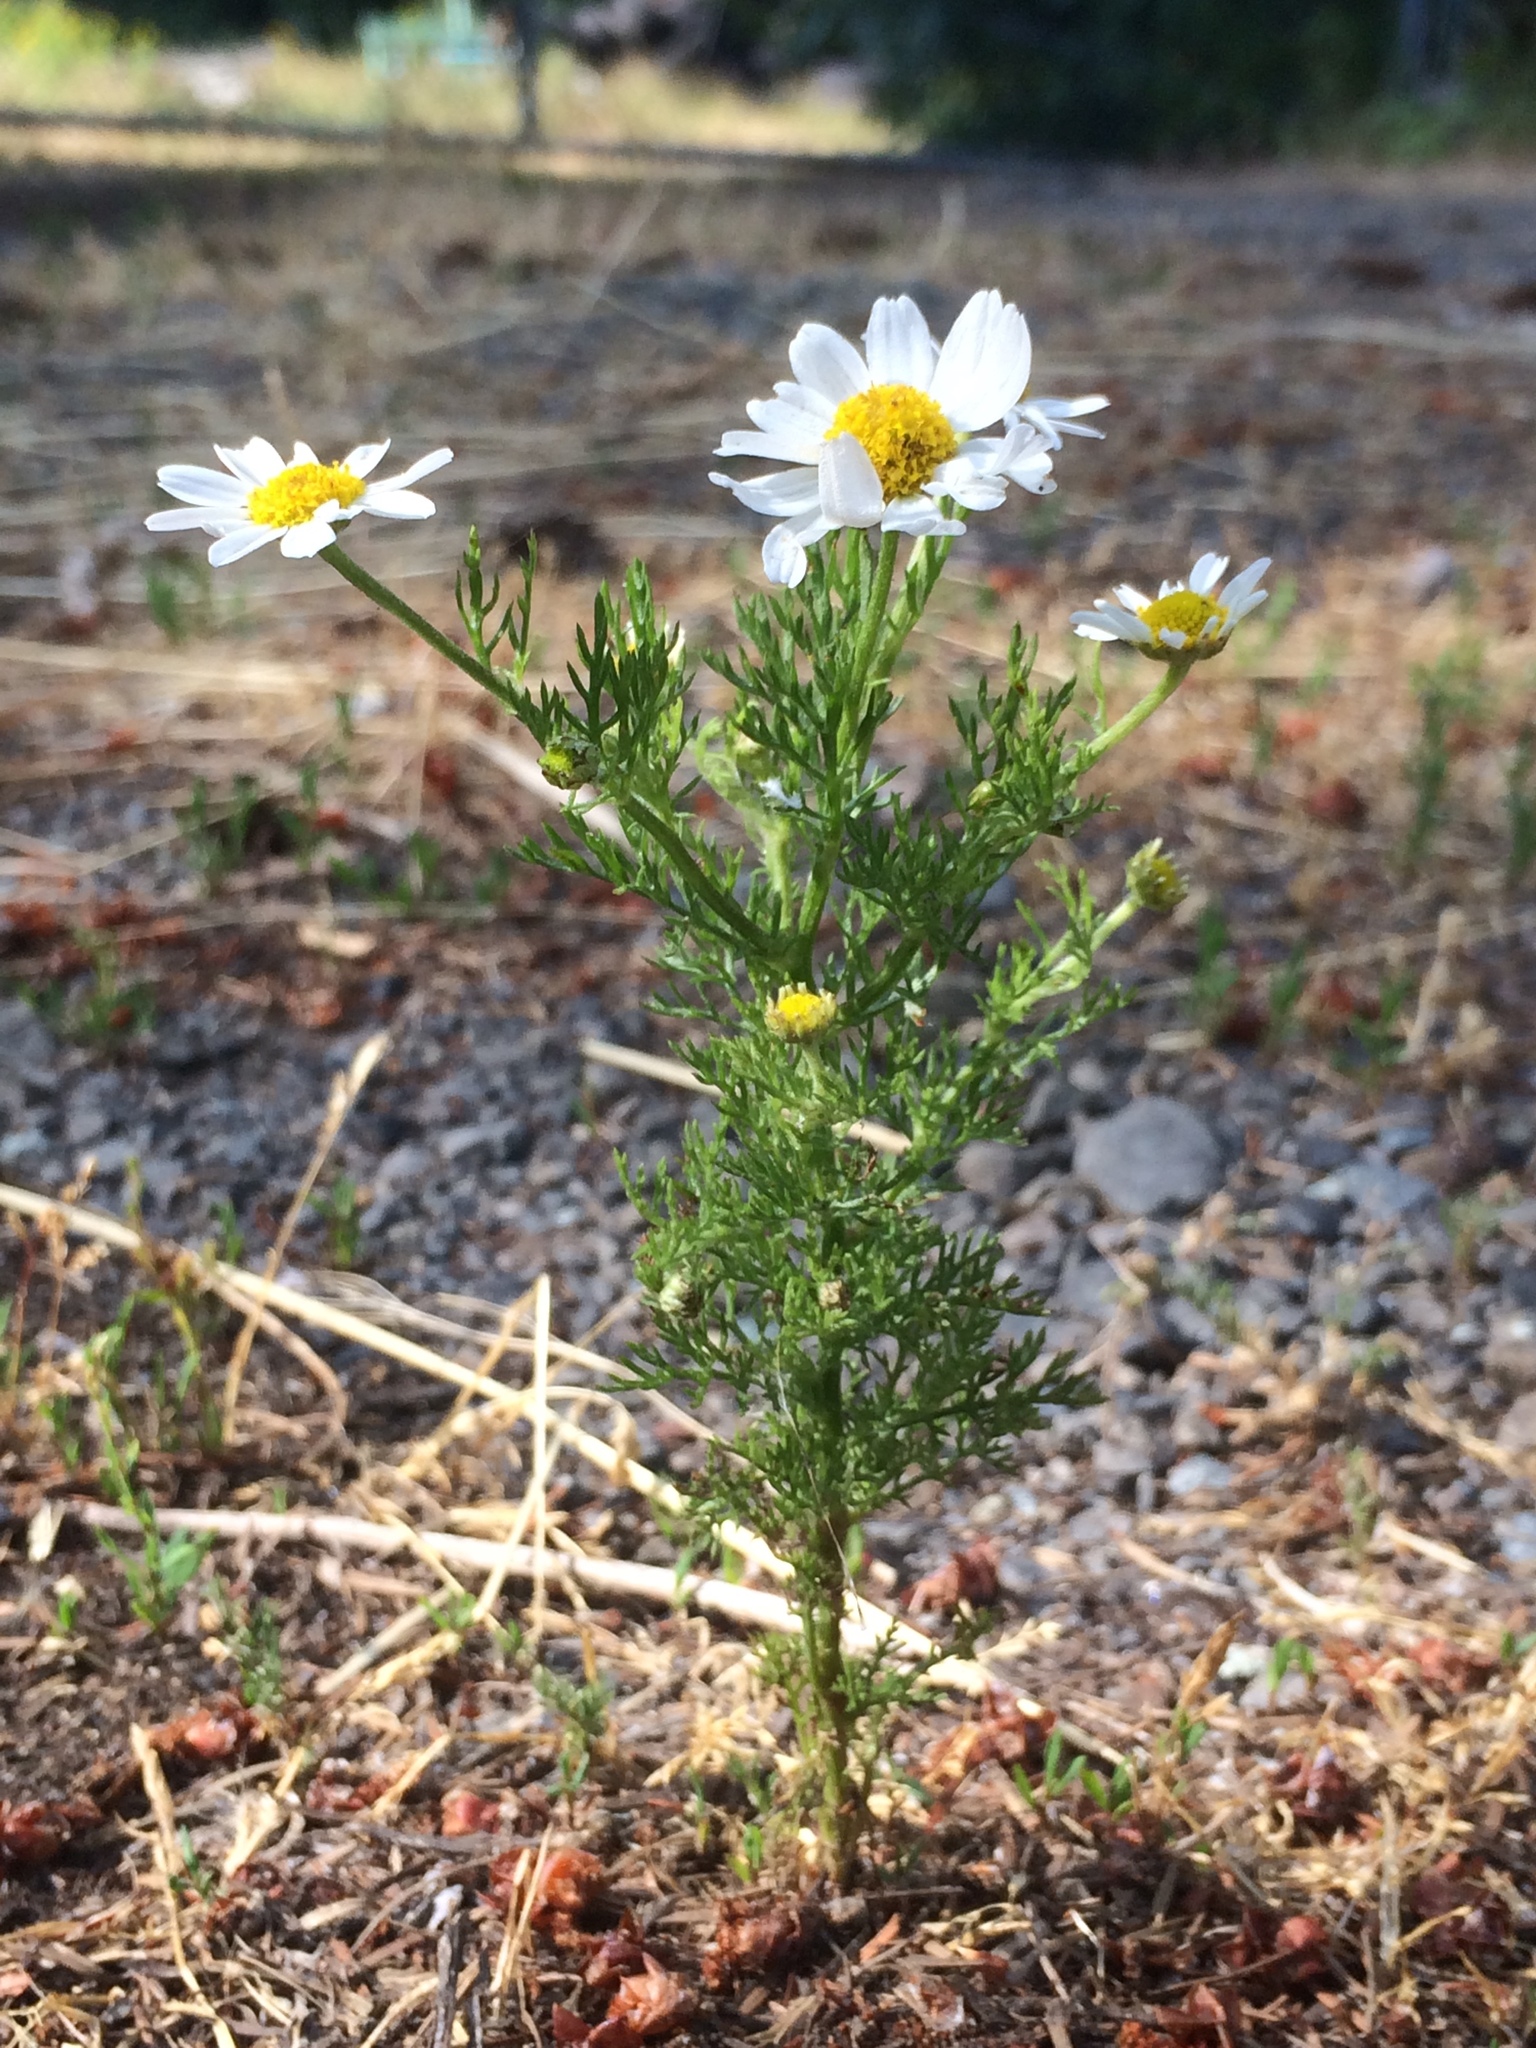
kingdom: Plantae
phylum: Tracheophyta
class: Magnoliopsida
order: Asterales
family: Asteraceae
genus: Anthemis
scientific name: Anthemis cotula
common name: Stinking chamomile
